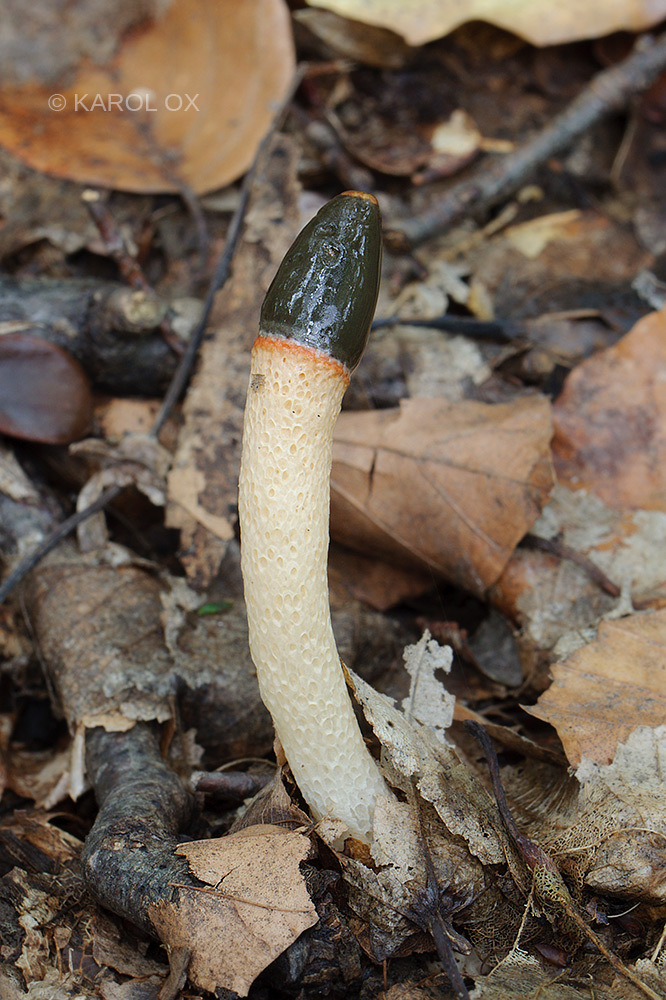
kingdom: Fungi
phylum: Basidiomycota
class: Agaricomycetes
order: Phallales
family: Phallaceae
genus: Mutinus
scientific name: Mutinus caninus
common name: Dog stinkhorn
